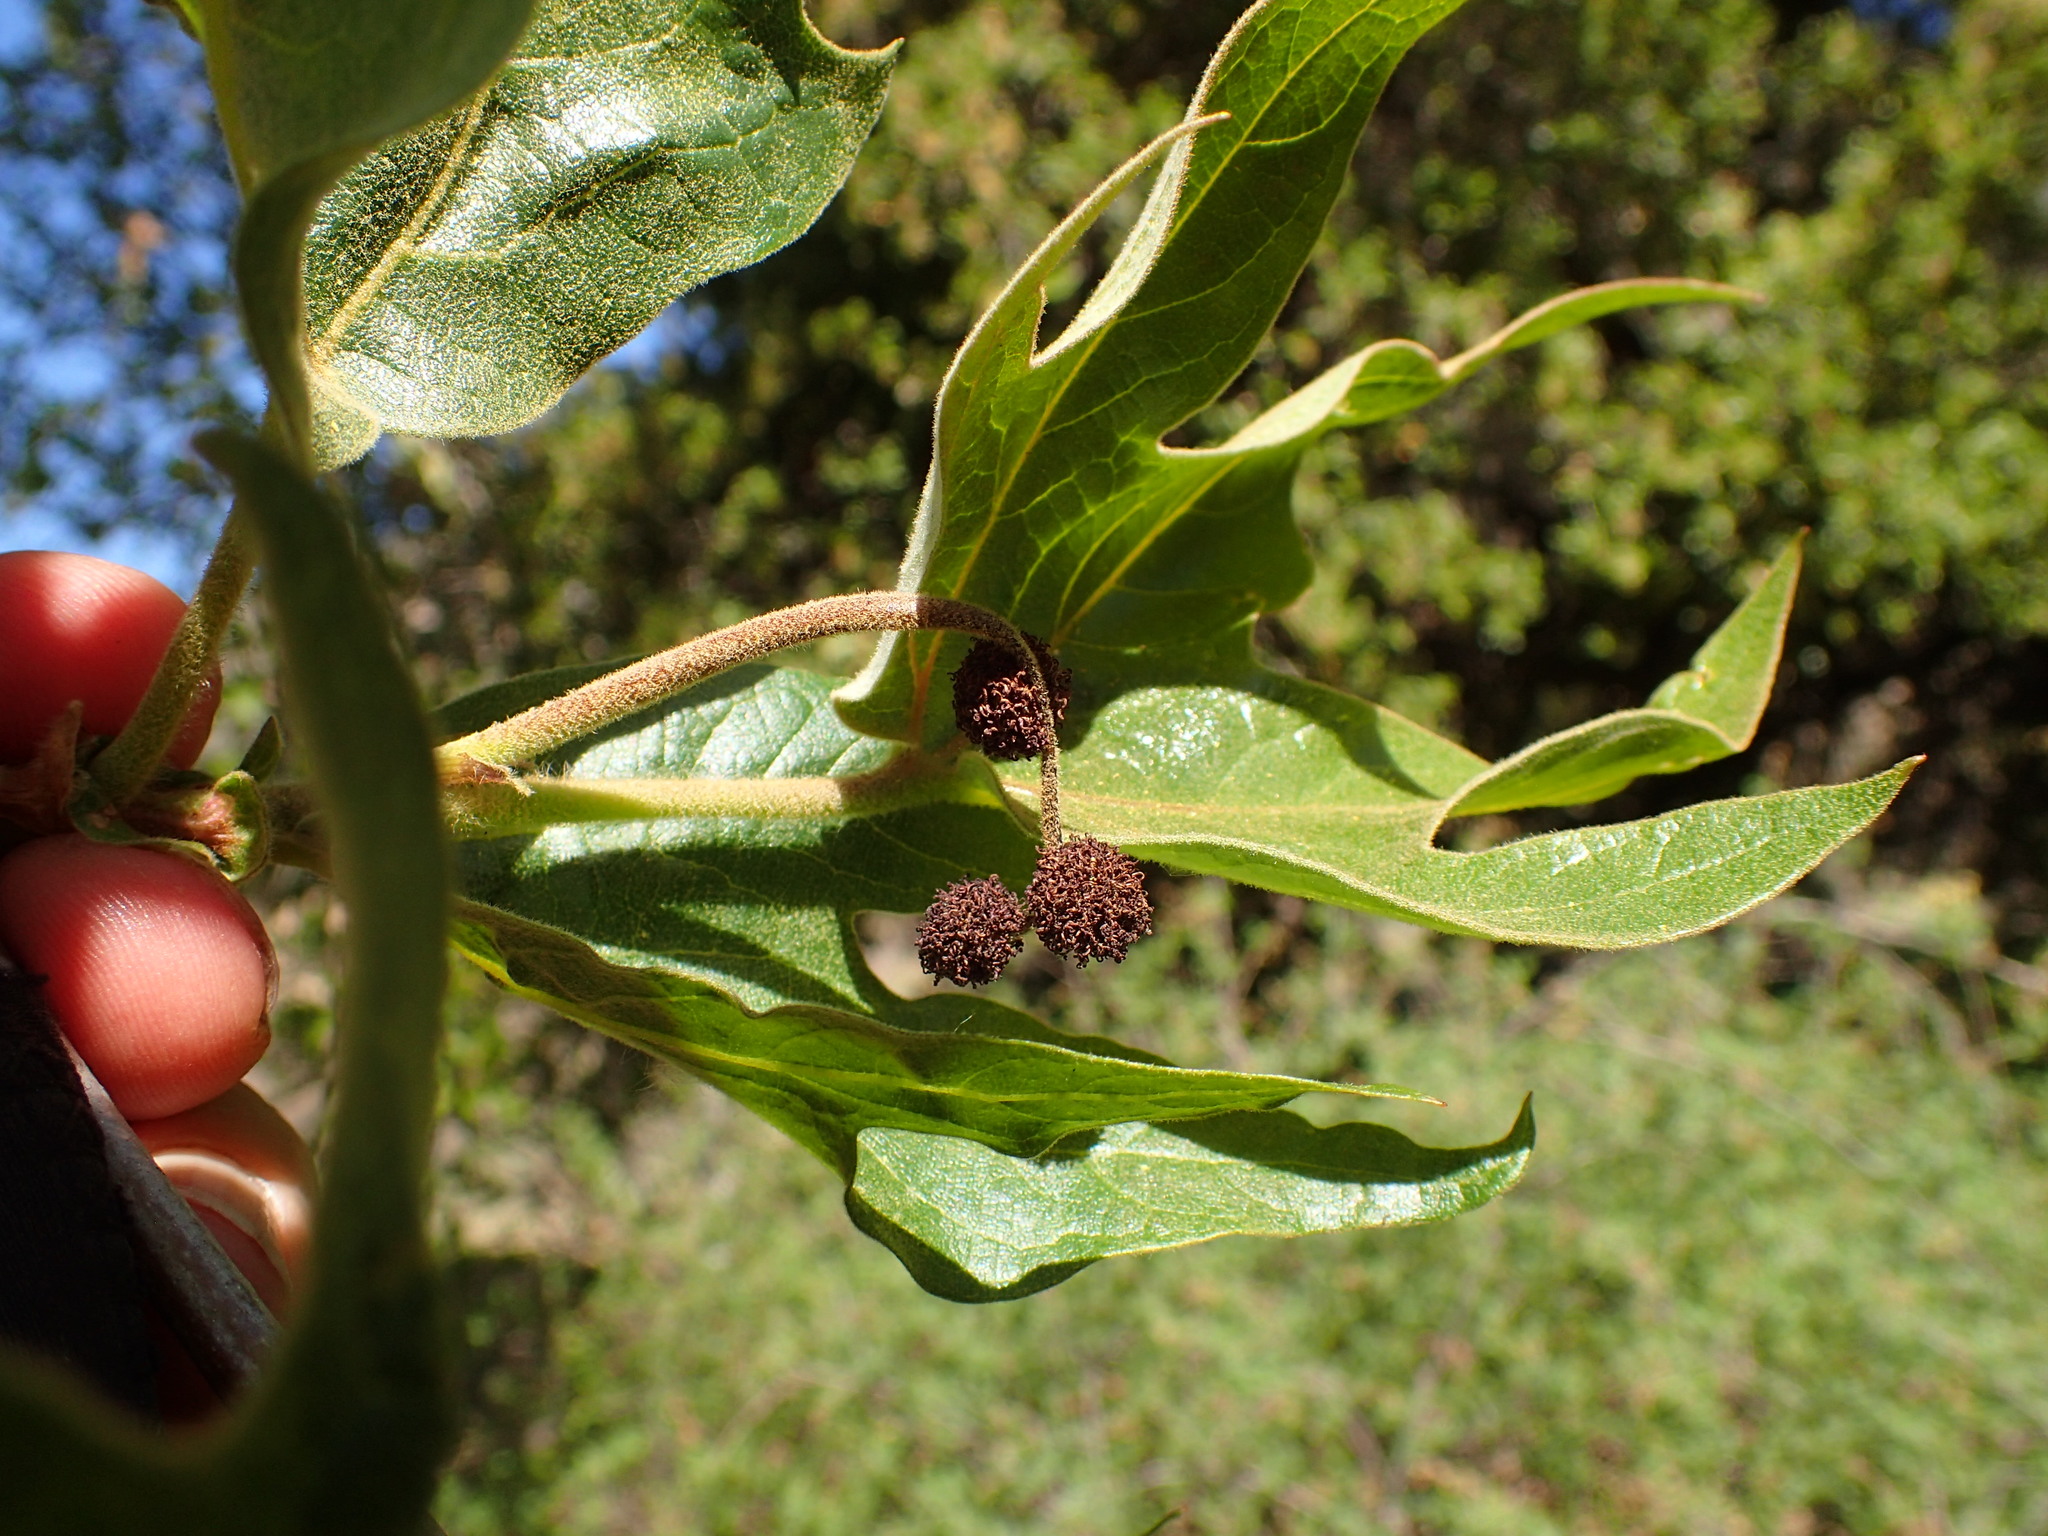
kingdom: Plantae
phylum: Tracheophyta
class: Magnoliopsida
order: Proteales
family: Platanaceae
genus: Platanus
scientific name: Platanus racemosa
